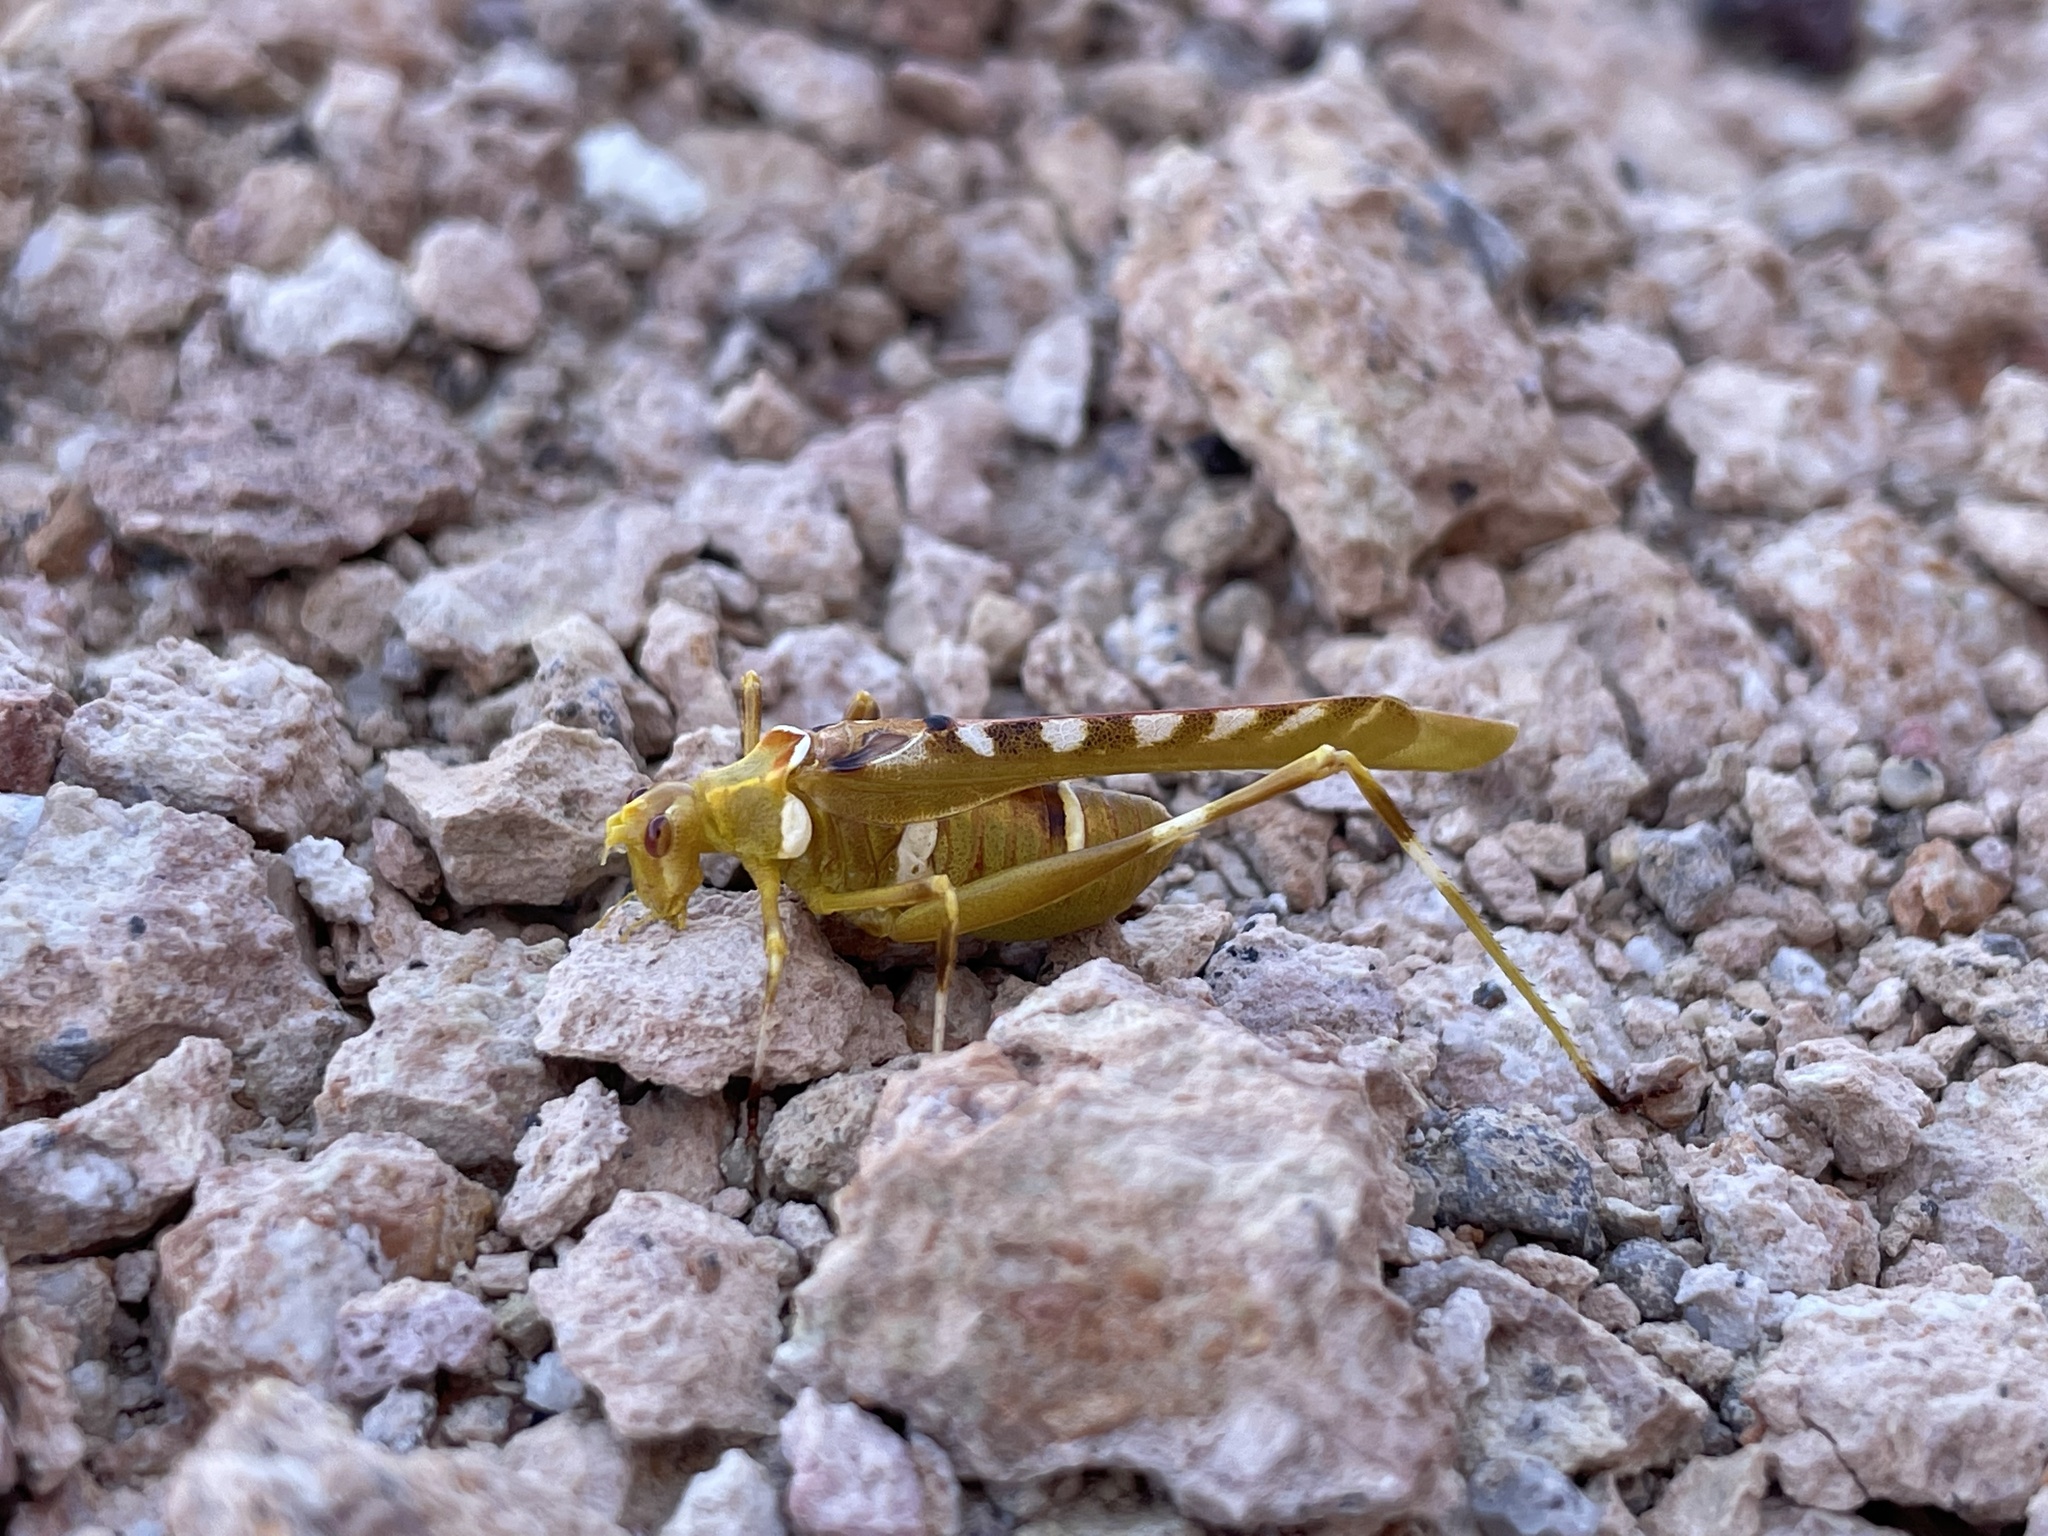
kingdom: Animalia
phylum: Arthropoda
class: Insecta
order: Orthoptera
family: Tettigoniidae
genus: Insara
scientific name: Insara covilleae
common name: Creosote bush katydid
